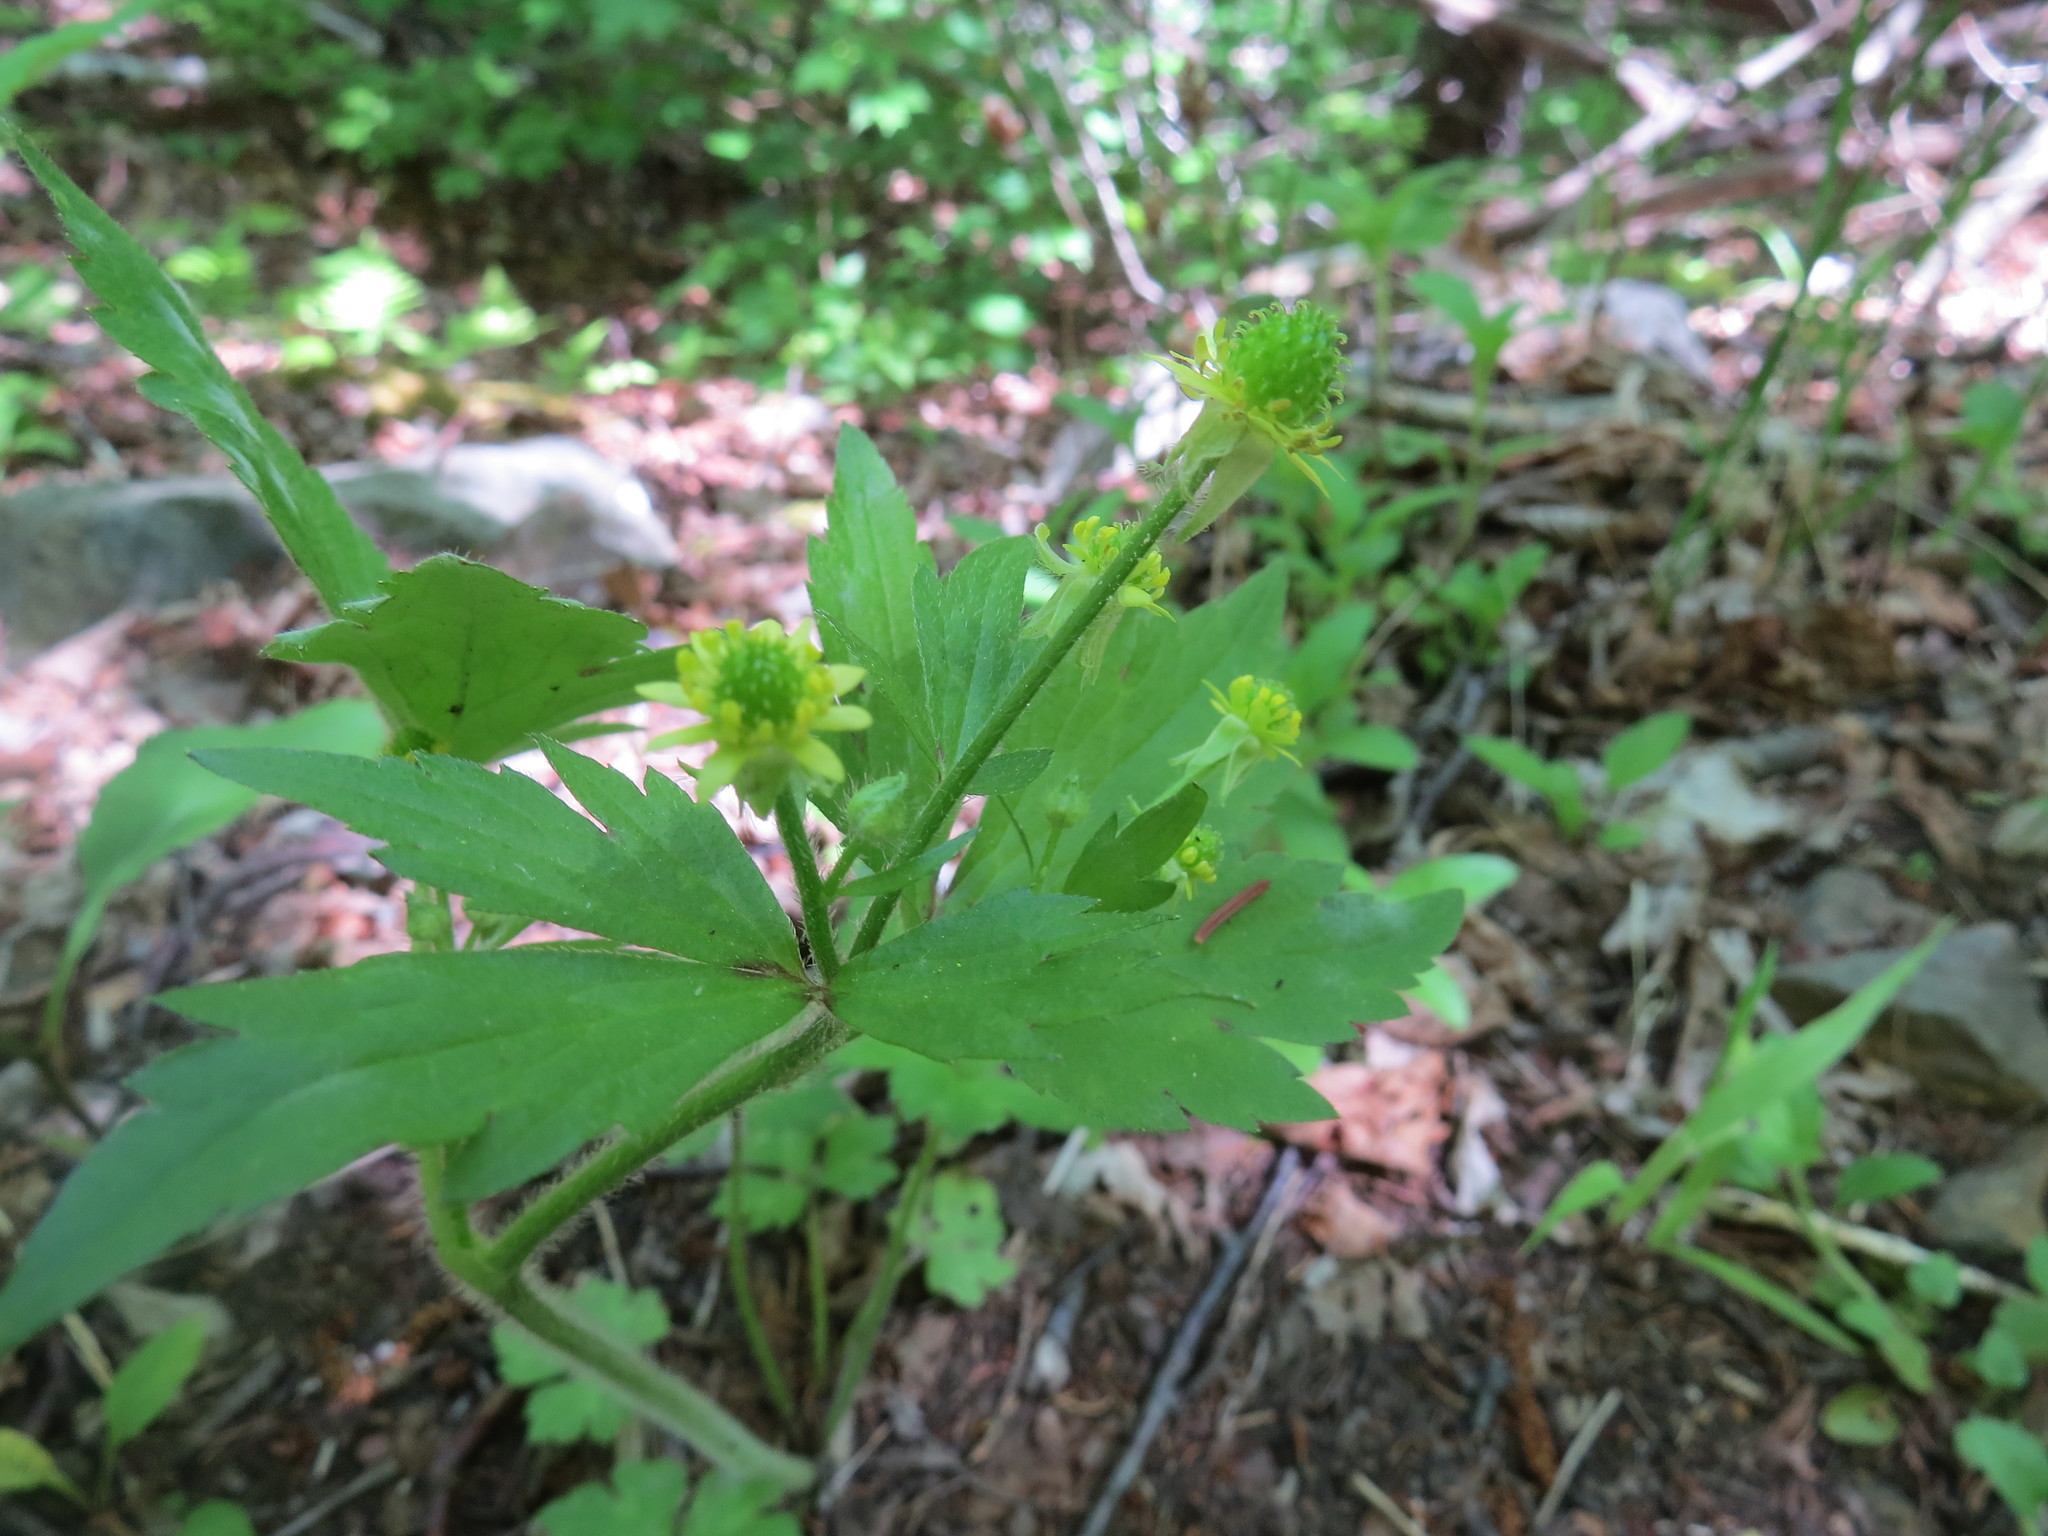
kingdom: Plantae
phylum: Tracheophyta
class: Magnoliopsida
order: Ranunculales
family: Ranunculaceae
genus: Ranunculus
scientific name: Ranunculus recurvatus
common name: Blisterwort
